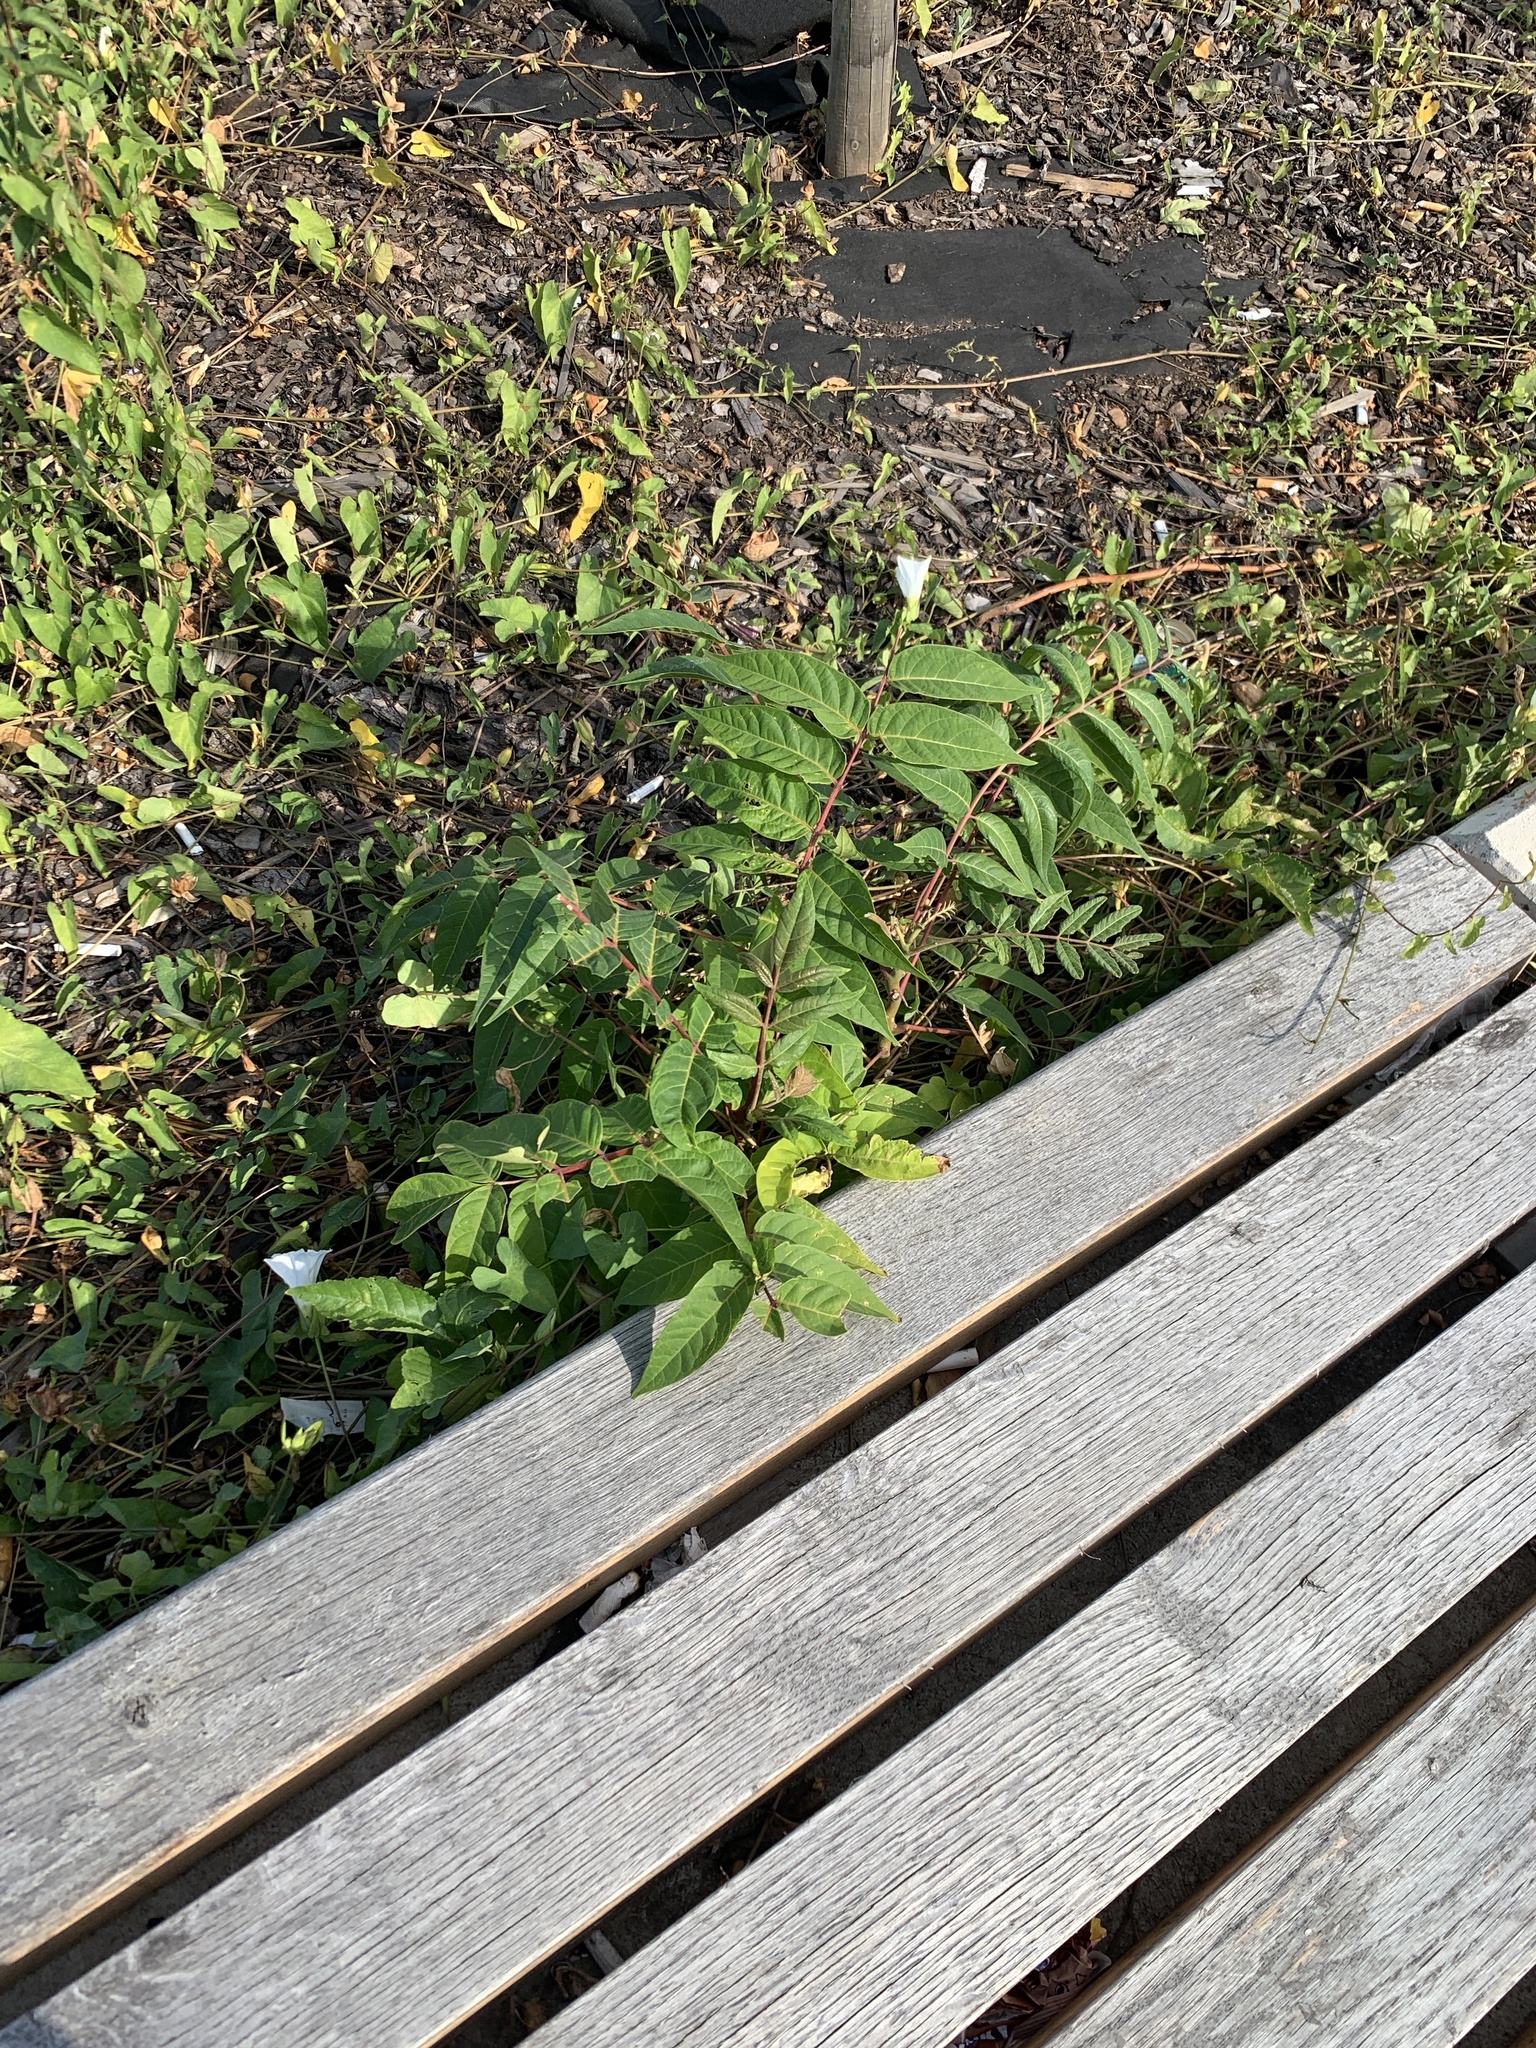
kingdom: Plantae
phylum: Tracheophyta
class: Magnoliopsida
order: Sapindales
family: Simaroubaceae
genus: Ailanthus
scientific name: Ailanthus altissima
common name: Tree-of-heaven
